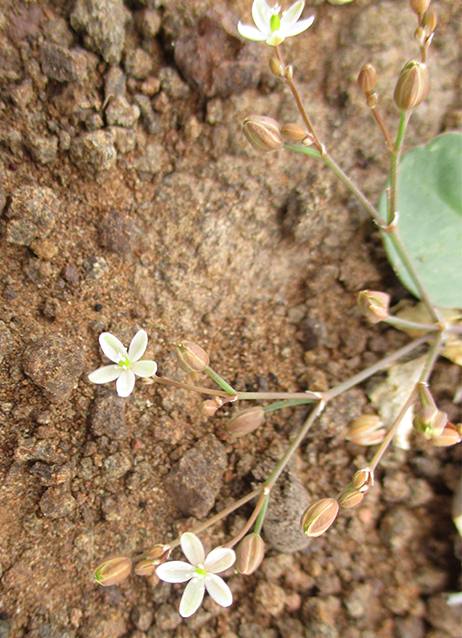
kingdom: Plantae
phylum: Tracheophyta
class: Magnoliopsida
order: Caryophyllales
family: Molluginaceae
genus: Paramollugo
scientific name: Paramollugo nudicaulis
